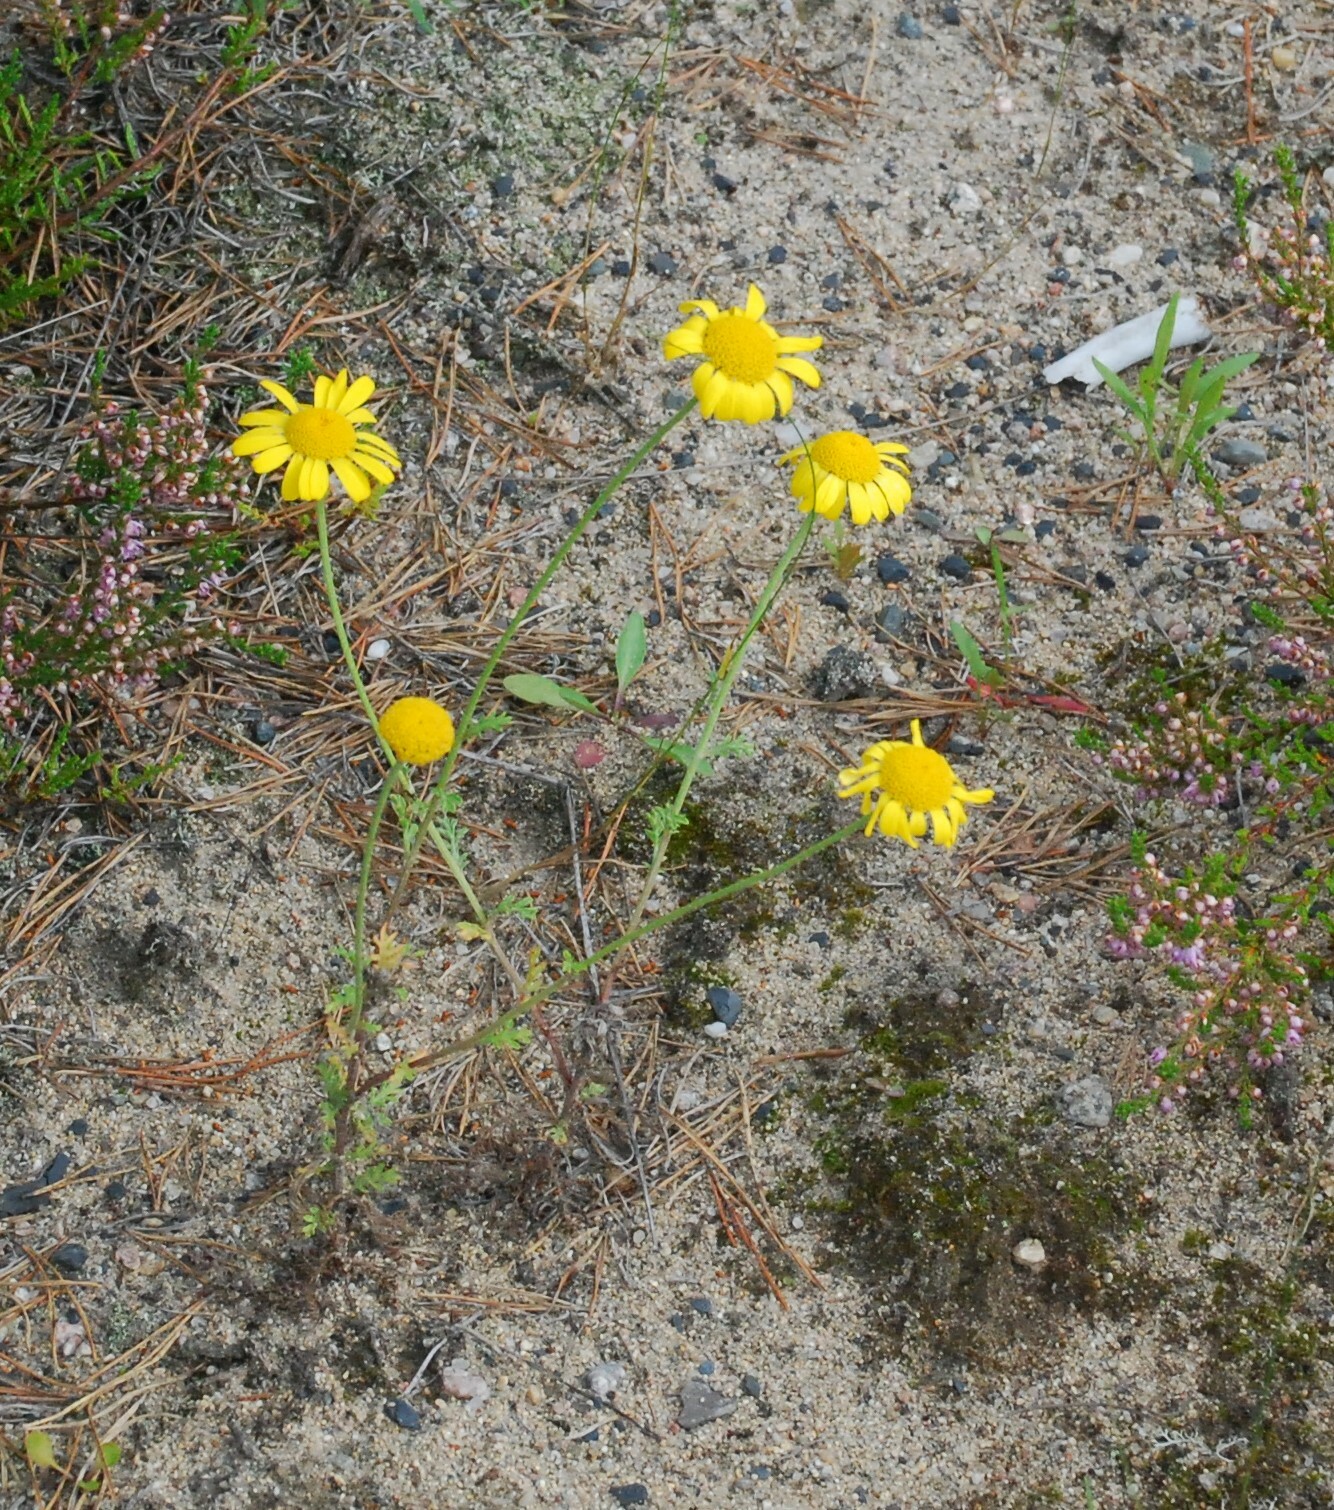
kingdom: Plantae
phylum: Tracheophyta
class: Magnoliopsida
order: Asterales
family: Asteraceae
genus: Cota
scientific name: Cota tinctoria
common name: Golden chamomile
